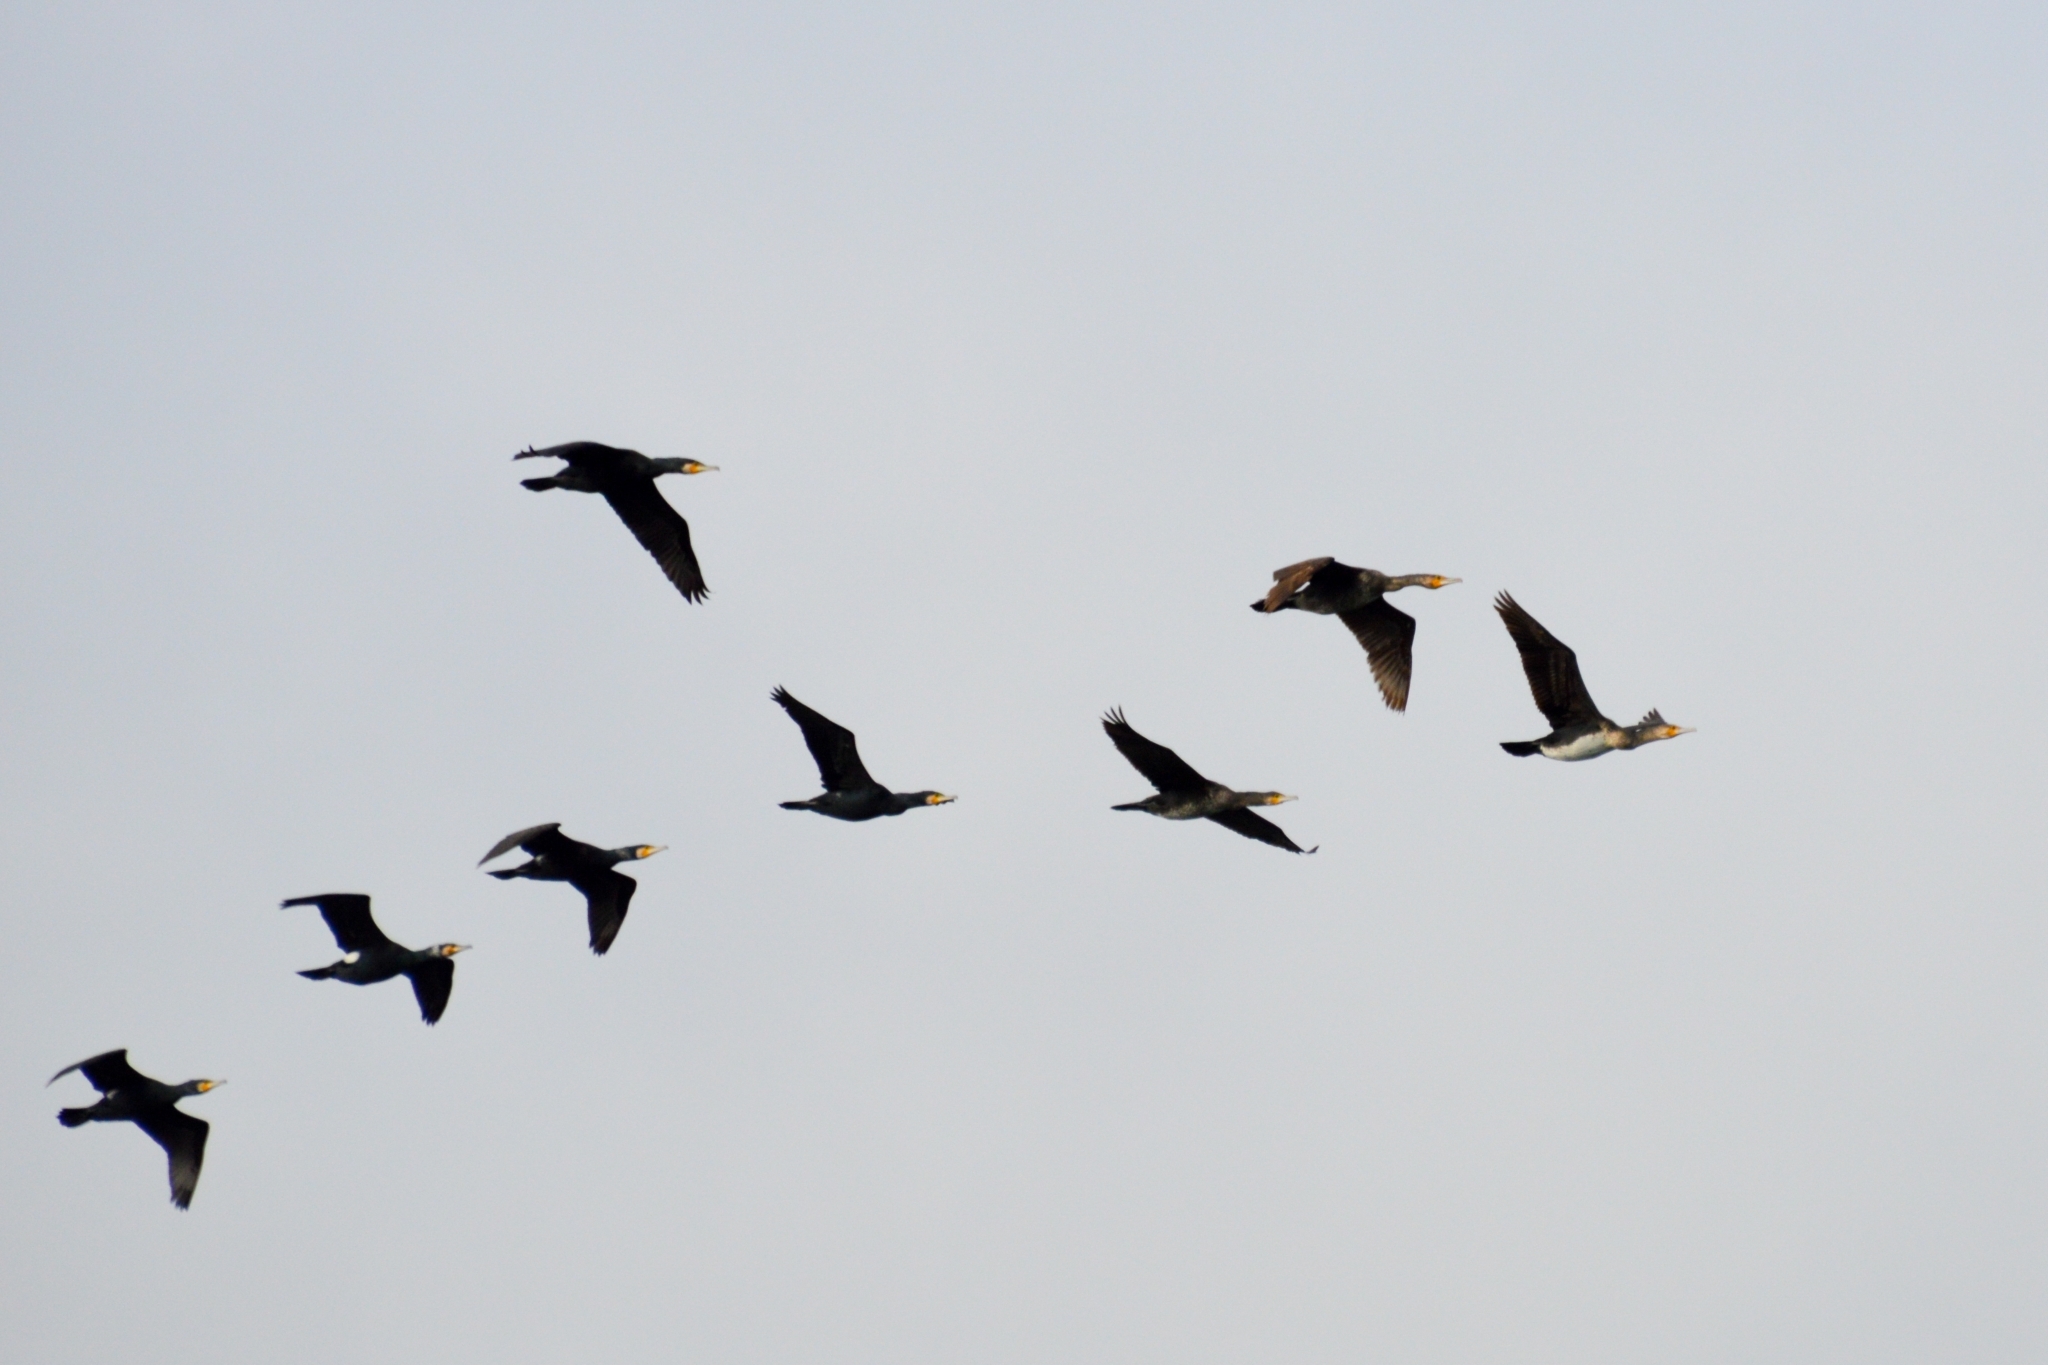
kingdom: Animalia
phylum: Chordata
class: Aves
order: Suliformes
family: Phalacrocoracidae
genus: Phalacrocorax
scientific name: Phalacrocorax carbo
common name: Great cormorant
